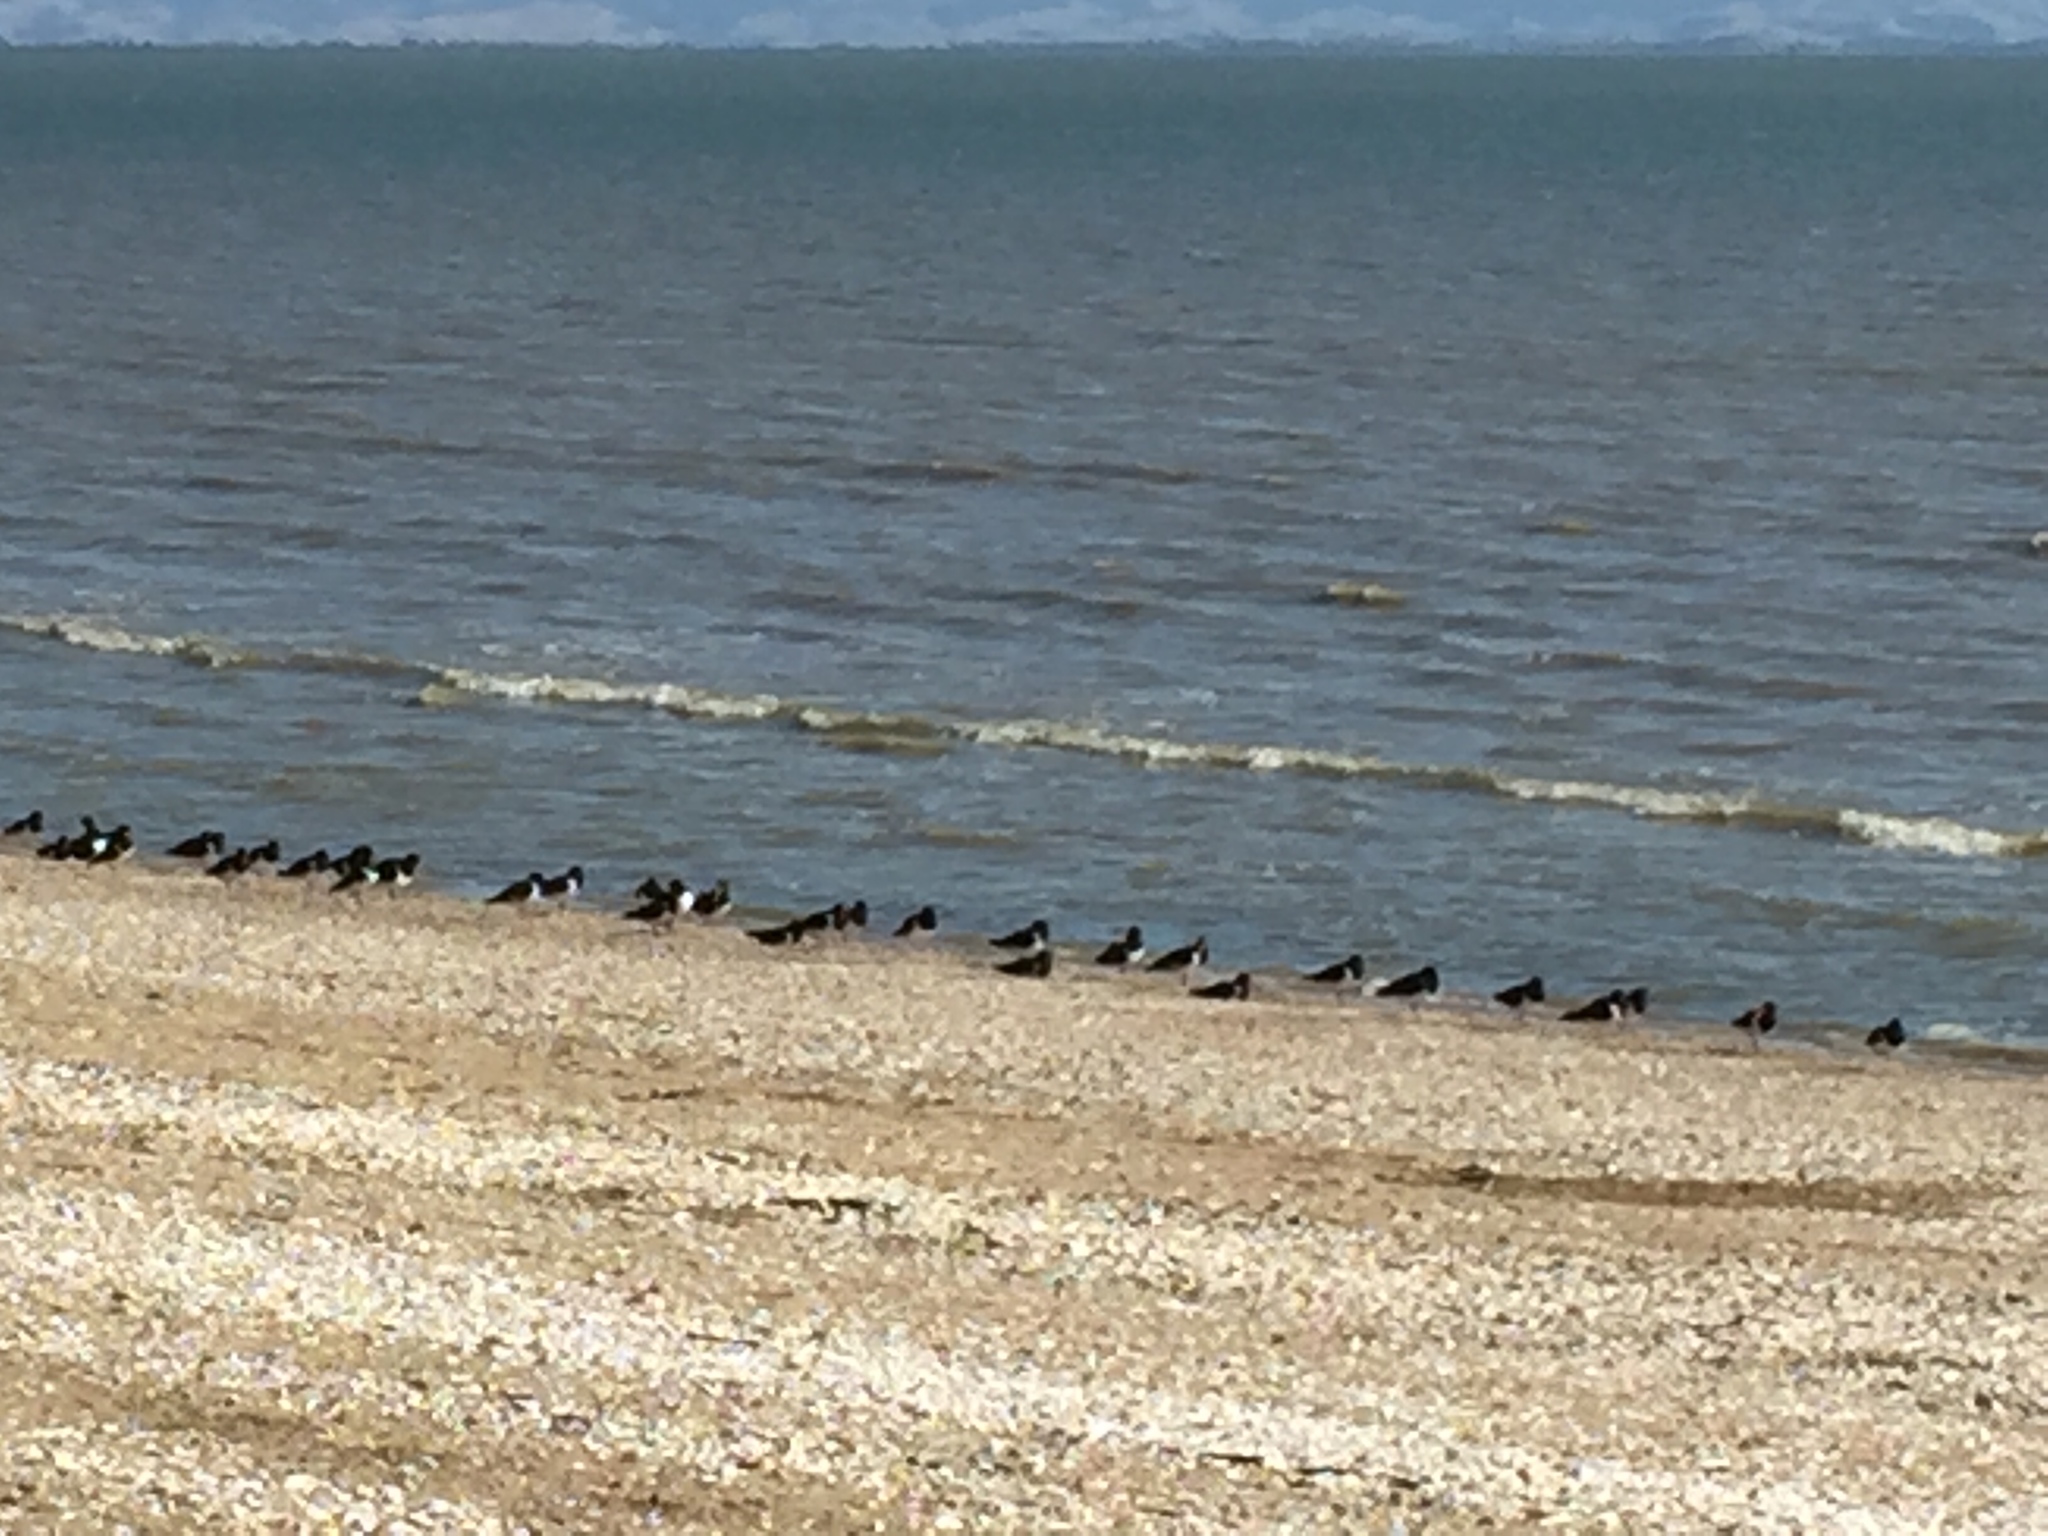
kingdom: Animalia
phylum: Chordata
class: Aves
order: Charadriiformes
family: Haematopodidae
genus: Haematopus
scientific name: Haematopus finschi
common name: South island oystercatcher
